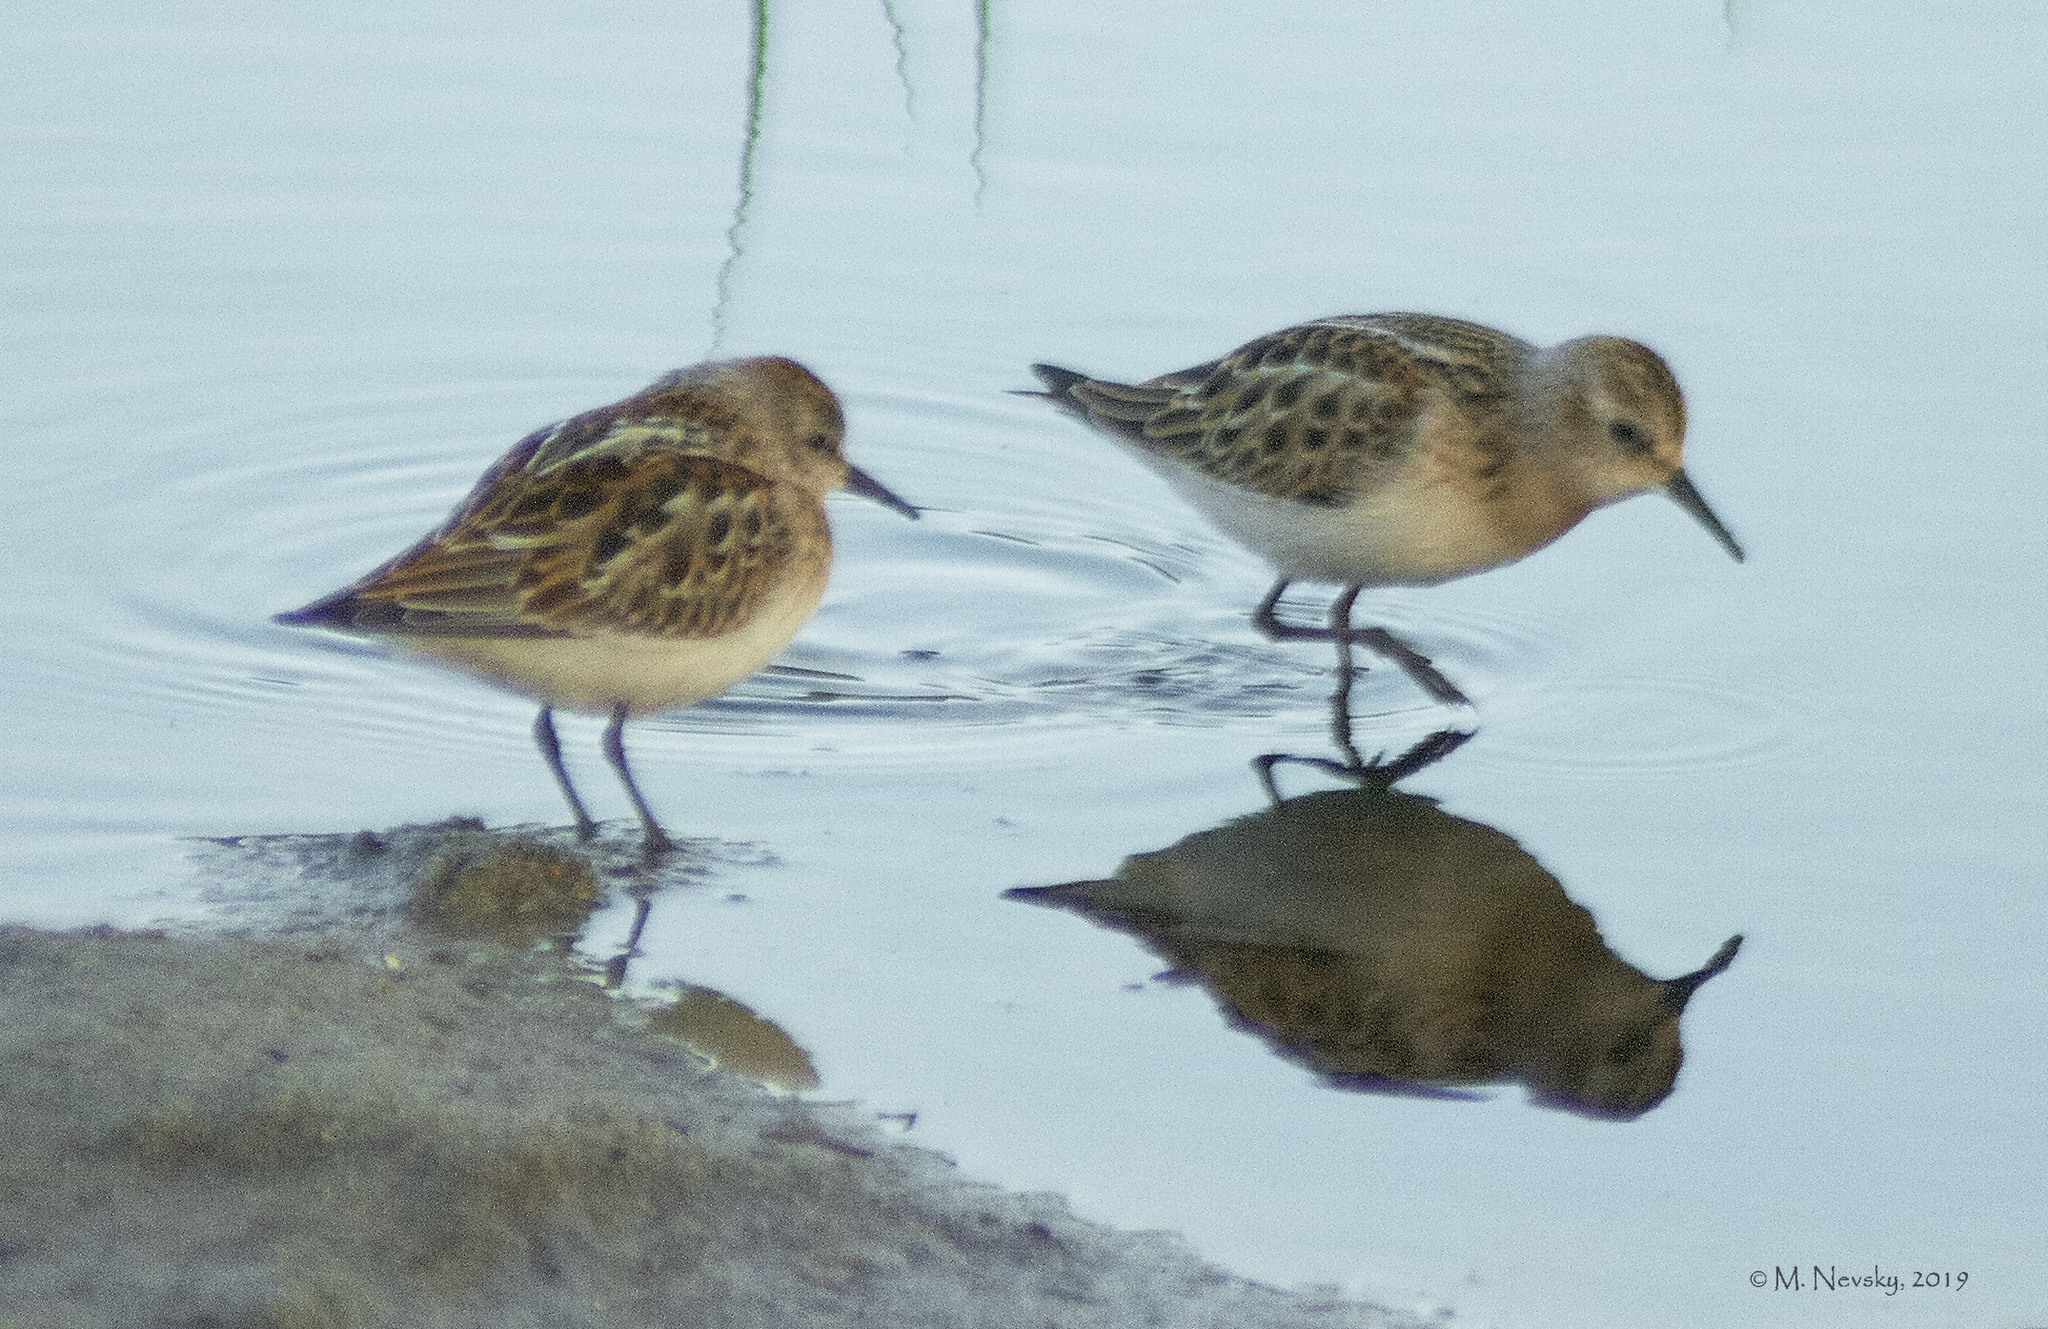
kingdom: Animalia
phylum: Chordata
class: Aves
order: Charadriiformes
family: Scolopacidae
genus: Calidris
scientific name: Calidris minuta
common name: Little stint
